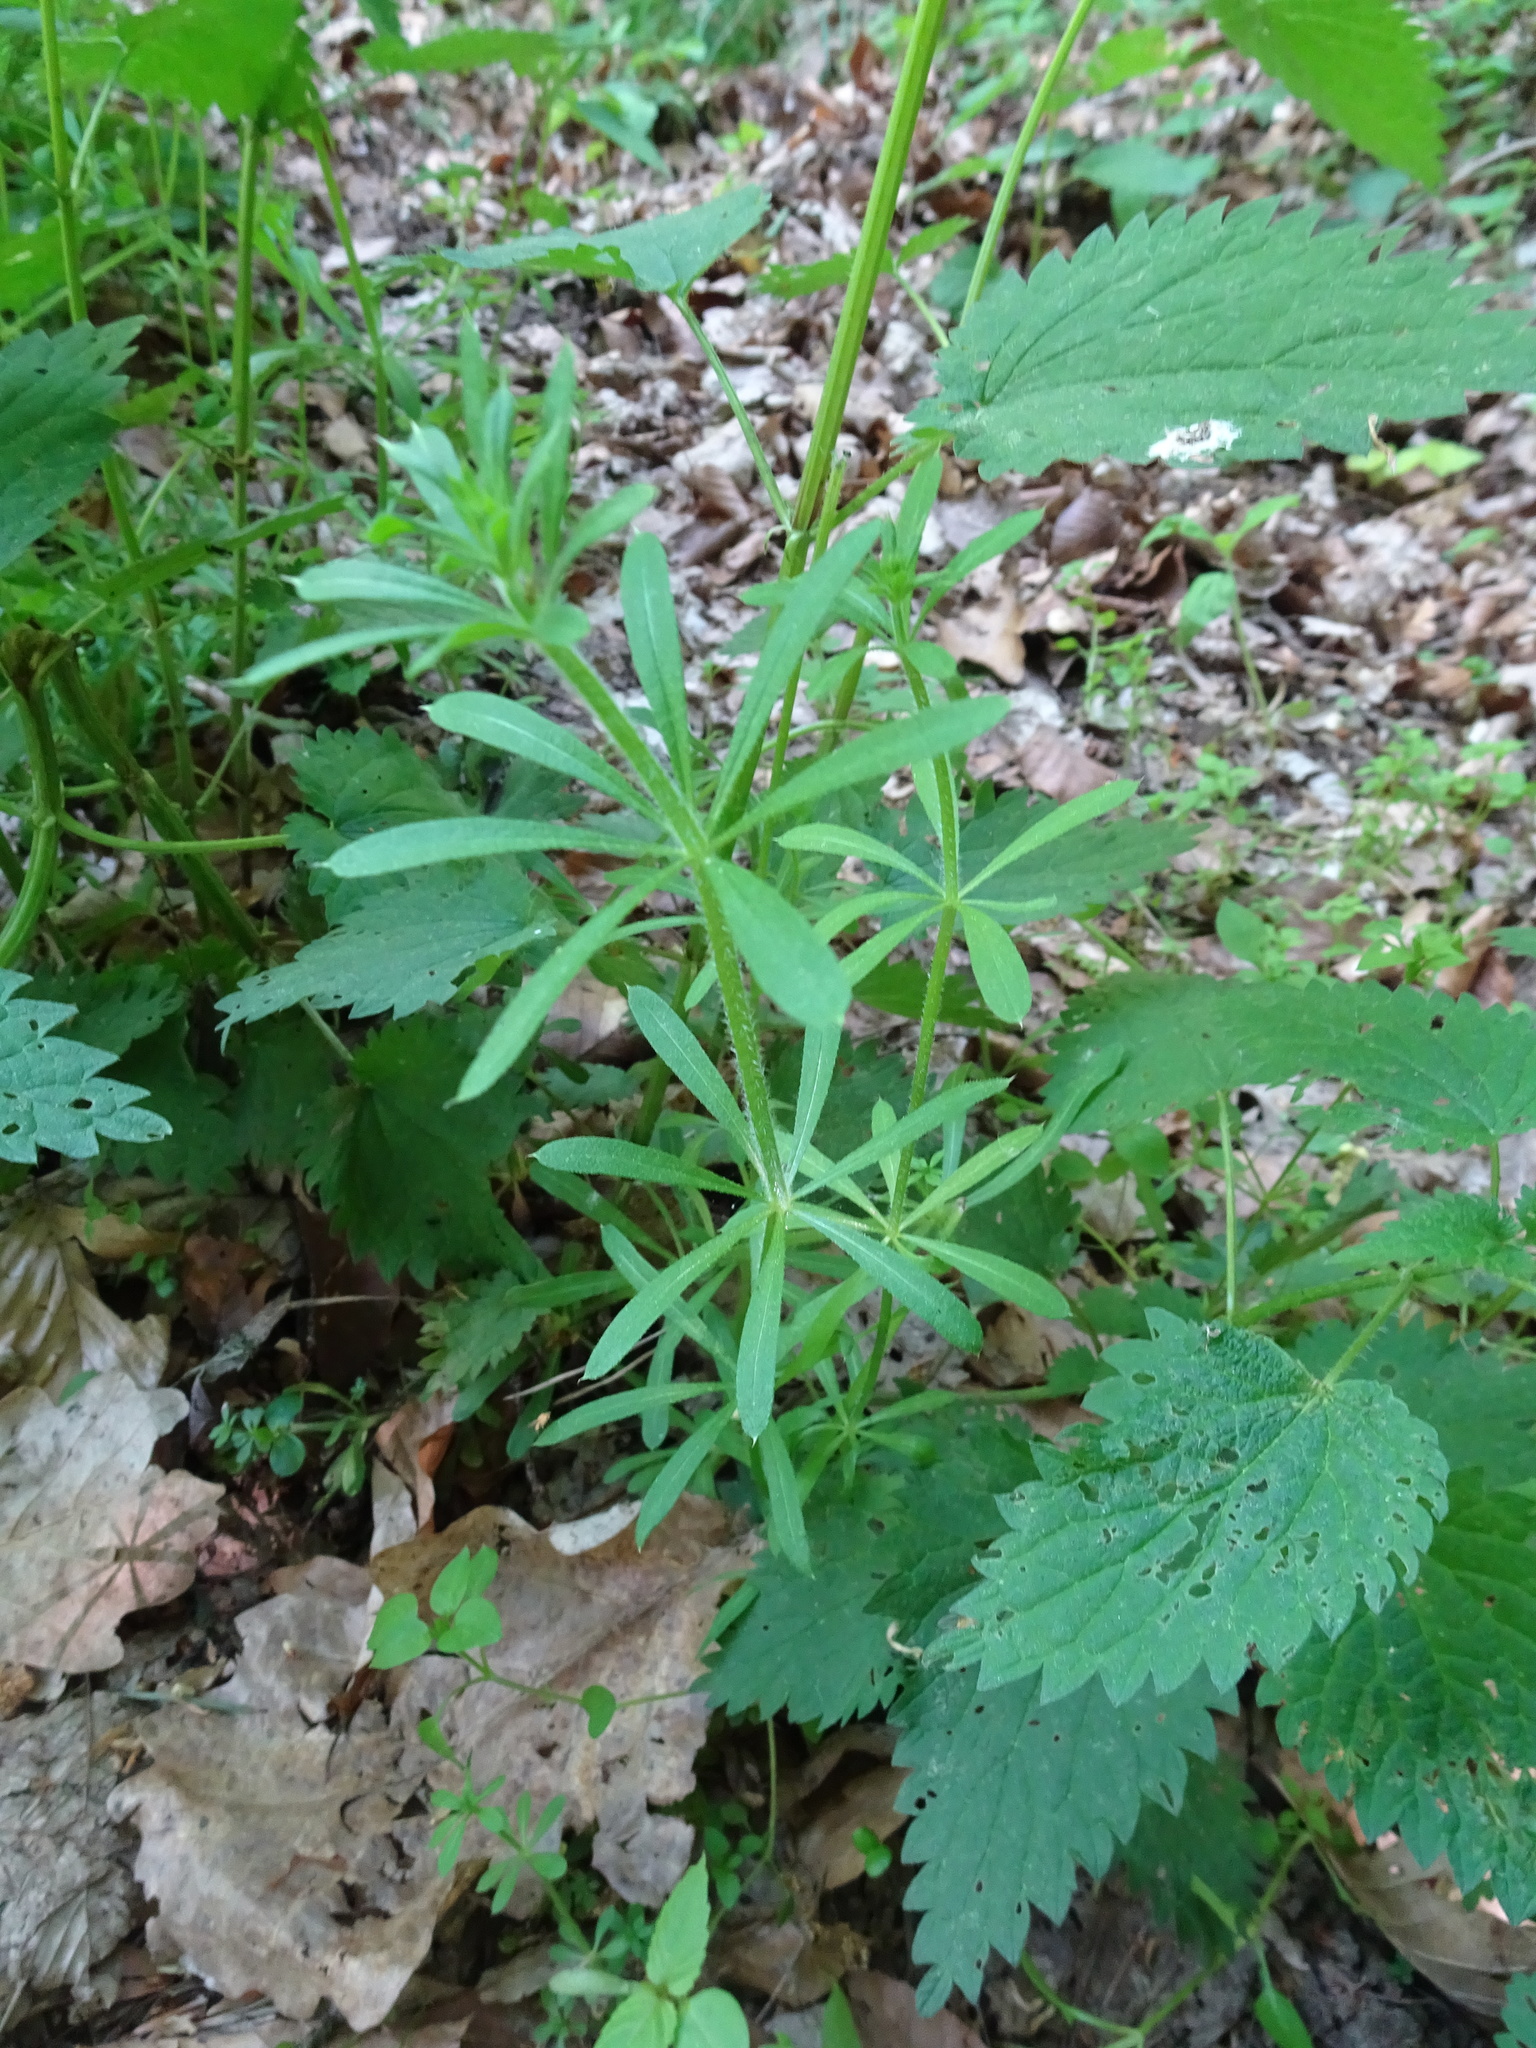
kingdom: Plantae
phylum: Tracheophyta
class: Magnoliopsida
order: Gentianales
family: Rubiaceae
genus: Galium
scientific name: Galium aparine
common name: Cleavers
